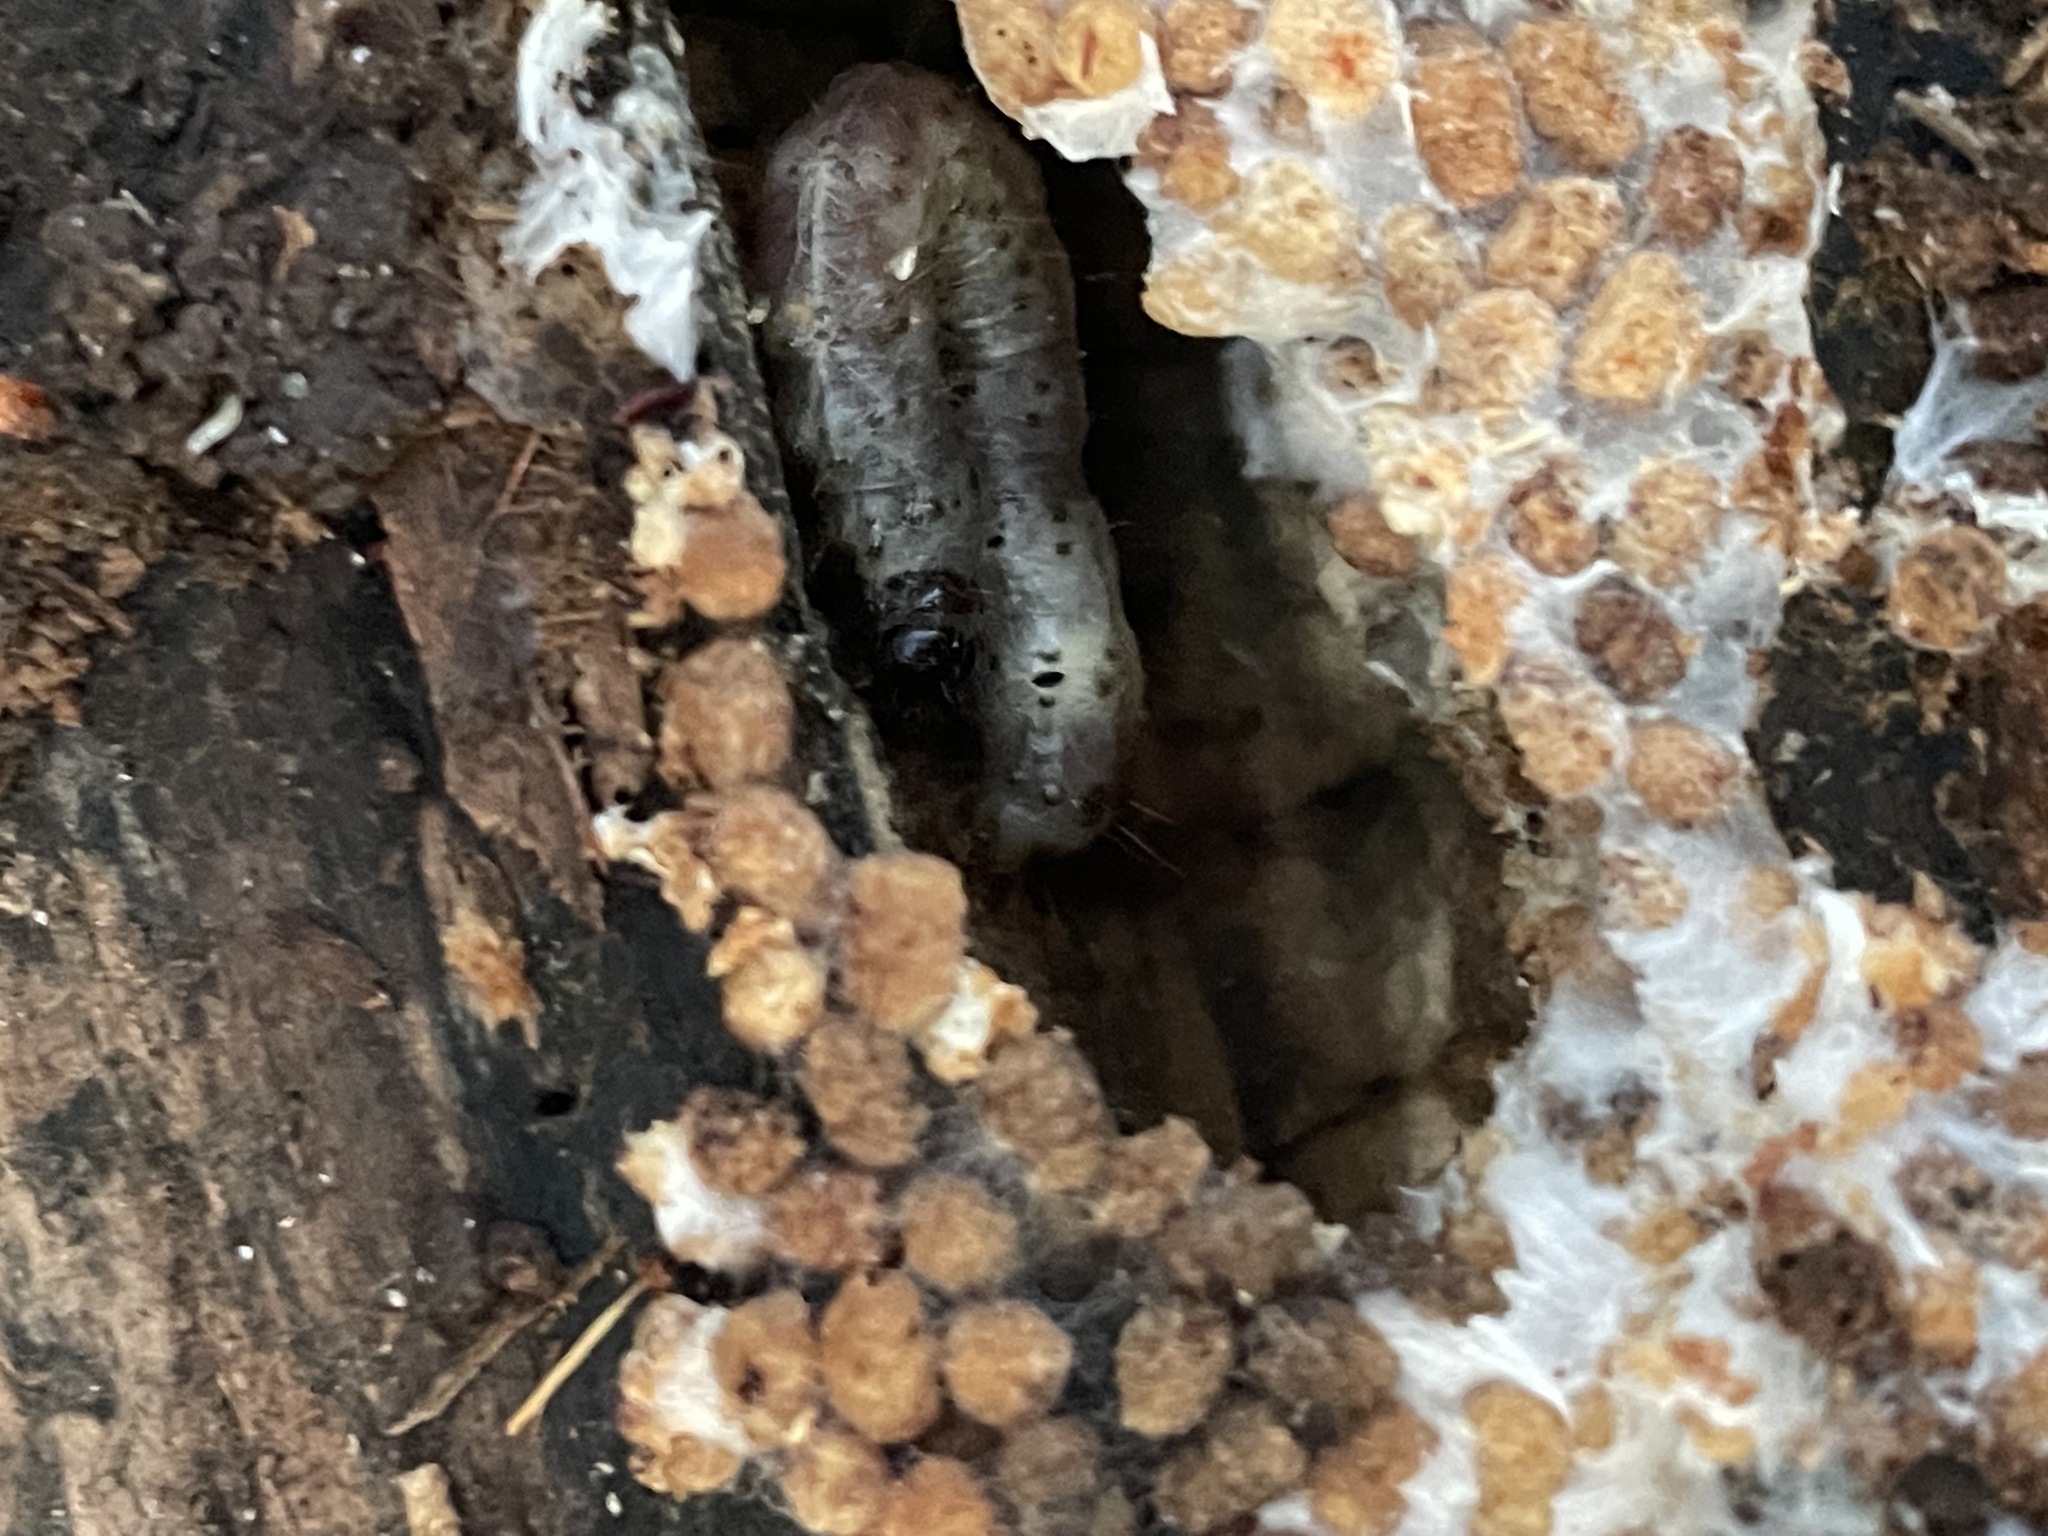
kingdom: Animalia
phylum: Arthropoda
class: Insecta
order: Lepidoptera
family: Erebidae
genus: Scolecocampa
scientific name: Scolecocampa liburna
